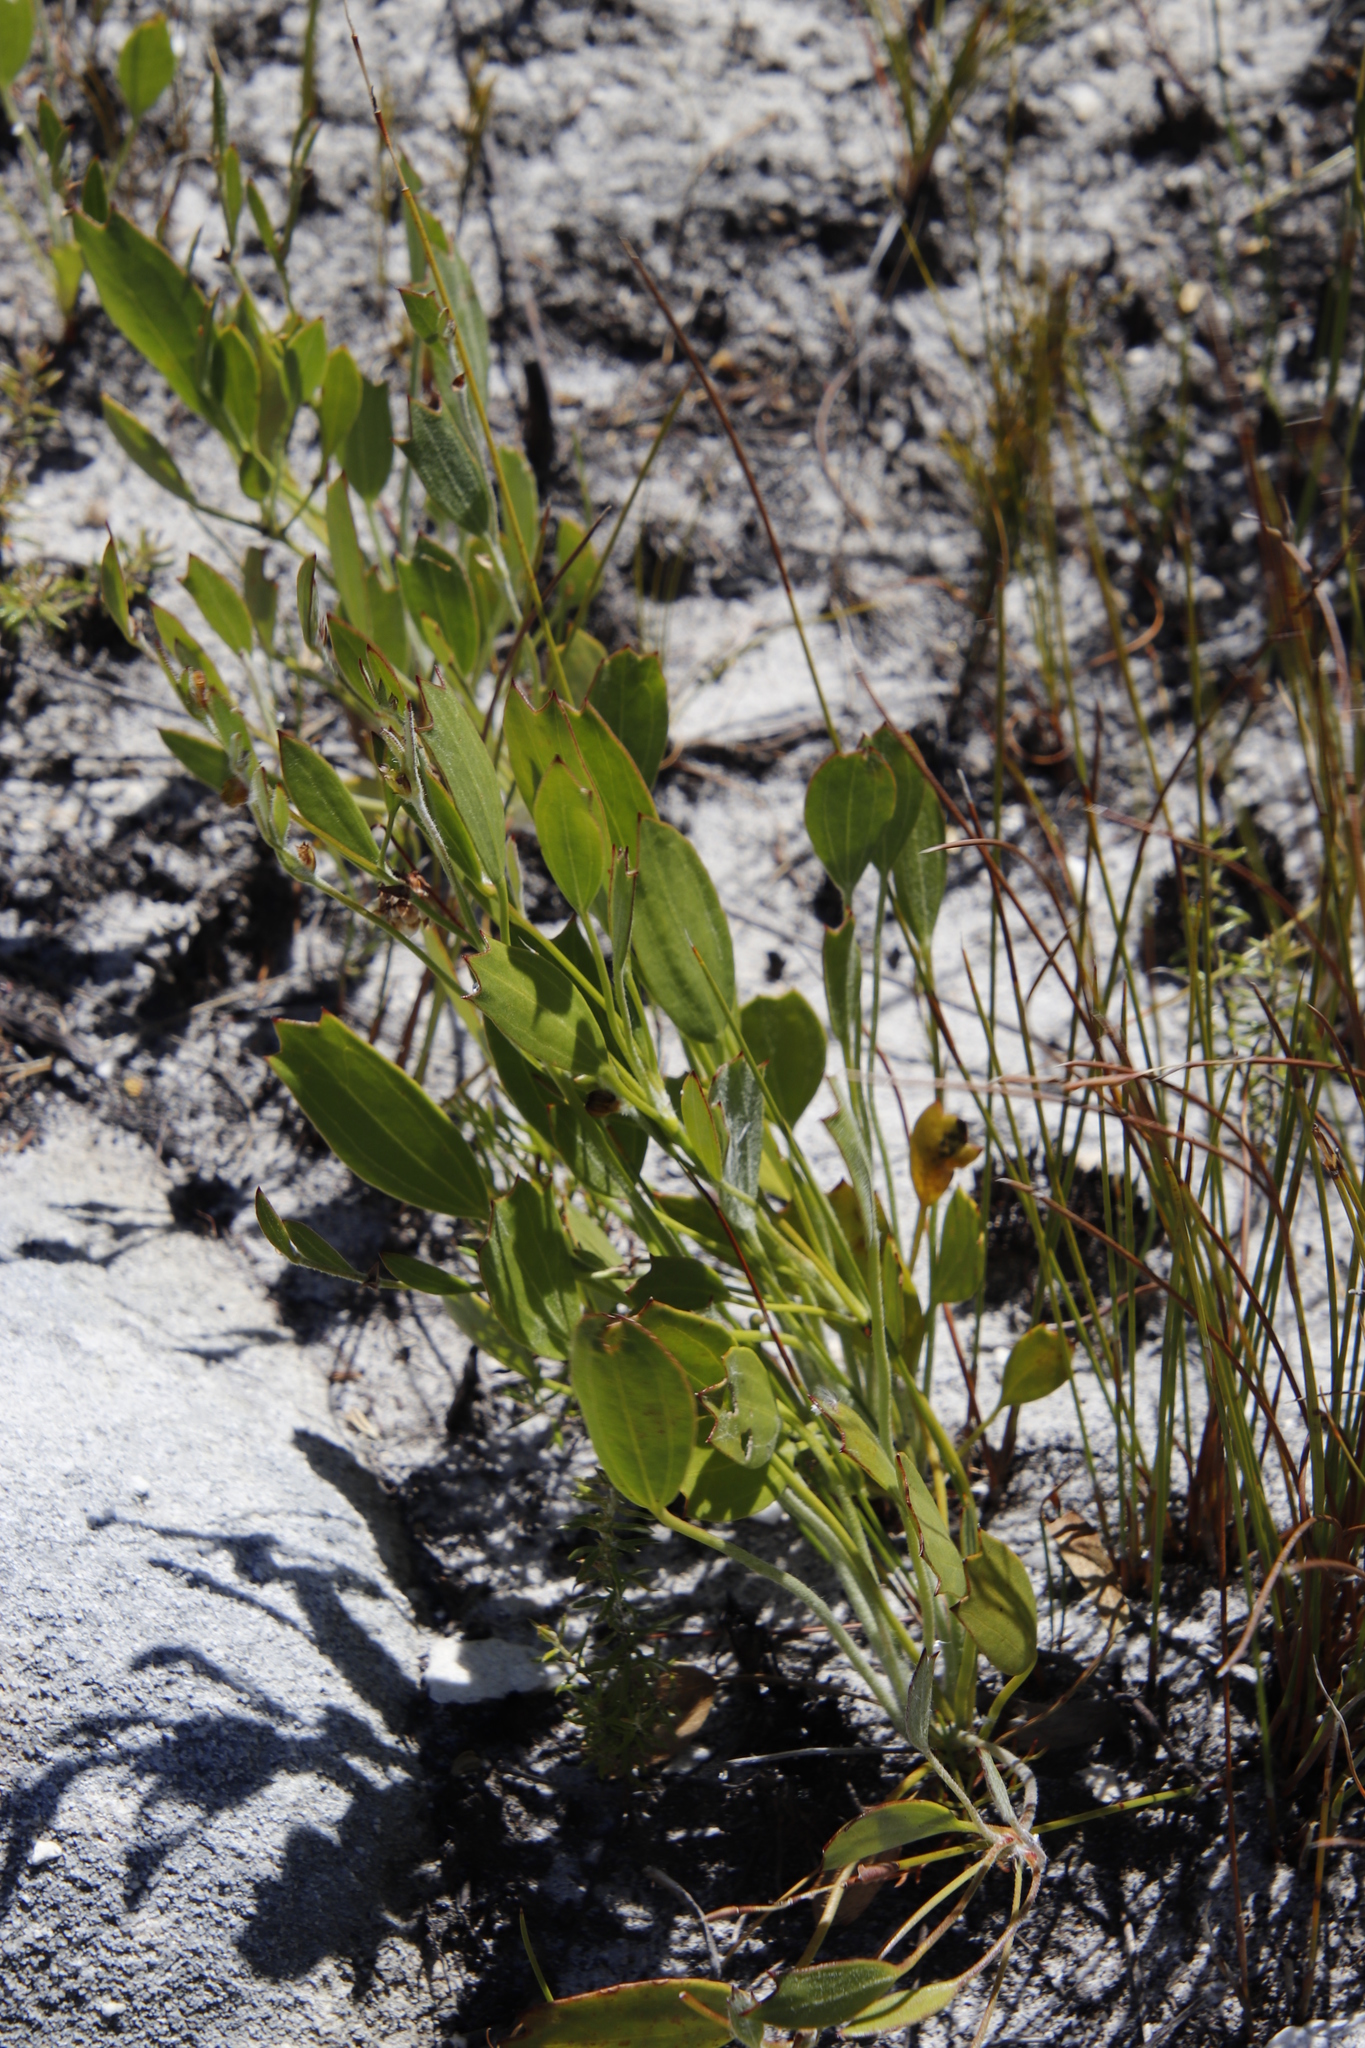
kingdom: Plantae
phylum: Tracheophyta
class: Magnoliopsida
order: Apiales
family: Apiaceae
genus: Centella
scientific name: Centella difformis
